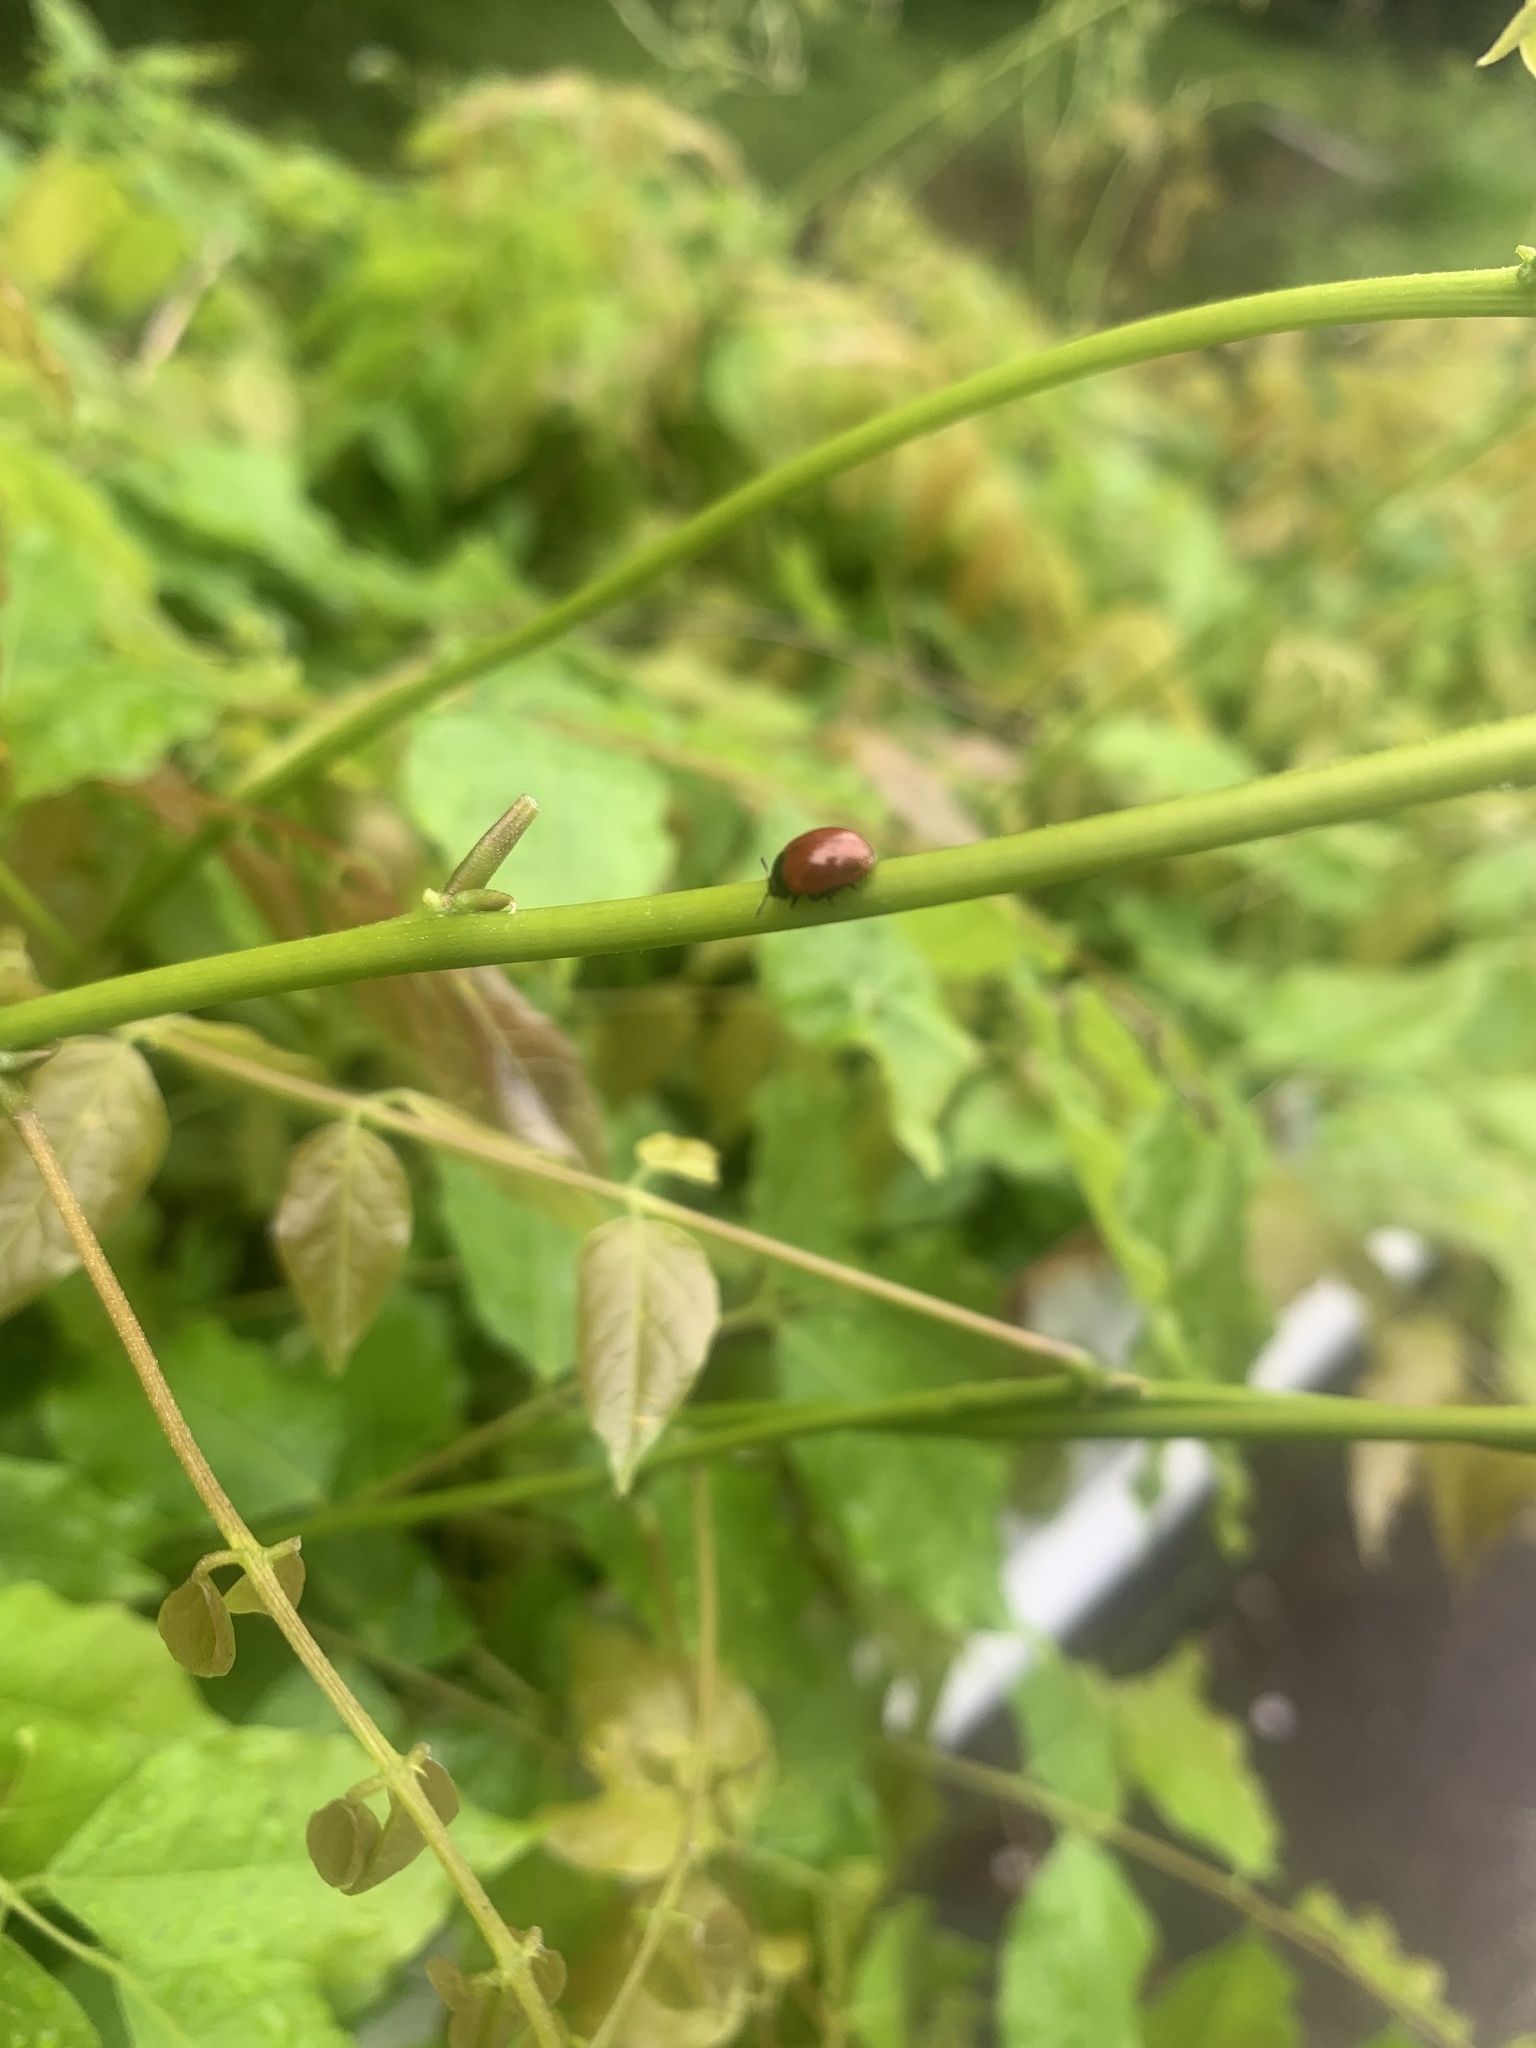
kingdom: Animalia
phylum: Arthropoda
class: Insecta
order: Coleoptera
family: Chrysomelidae
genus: Gonioctena
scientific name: Gonioctena
